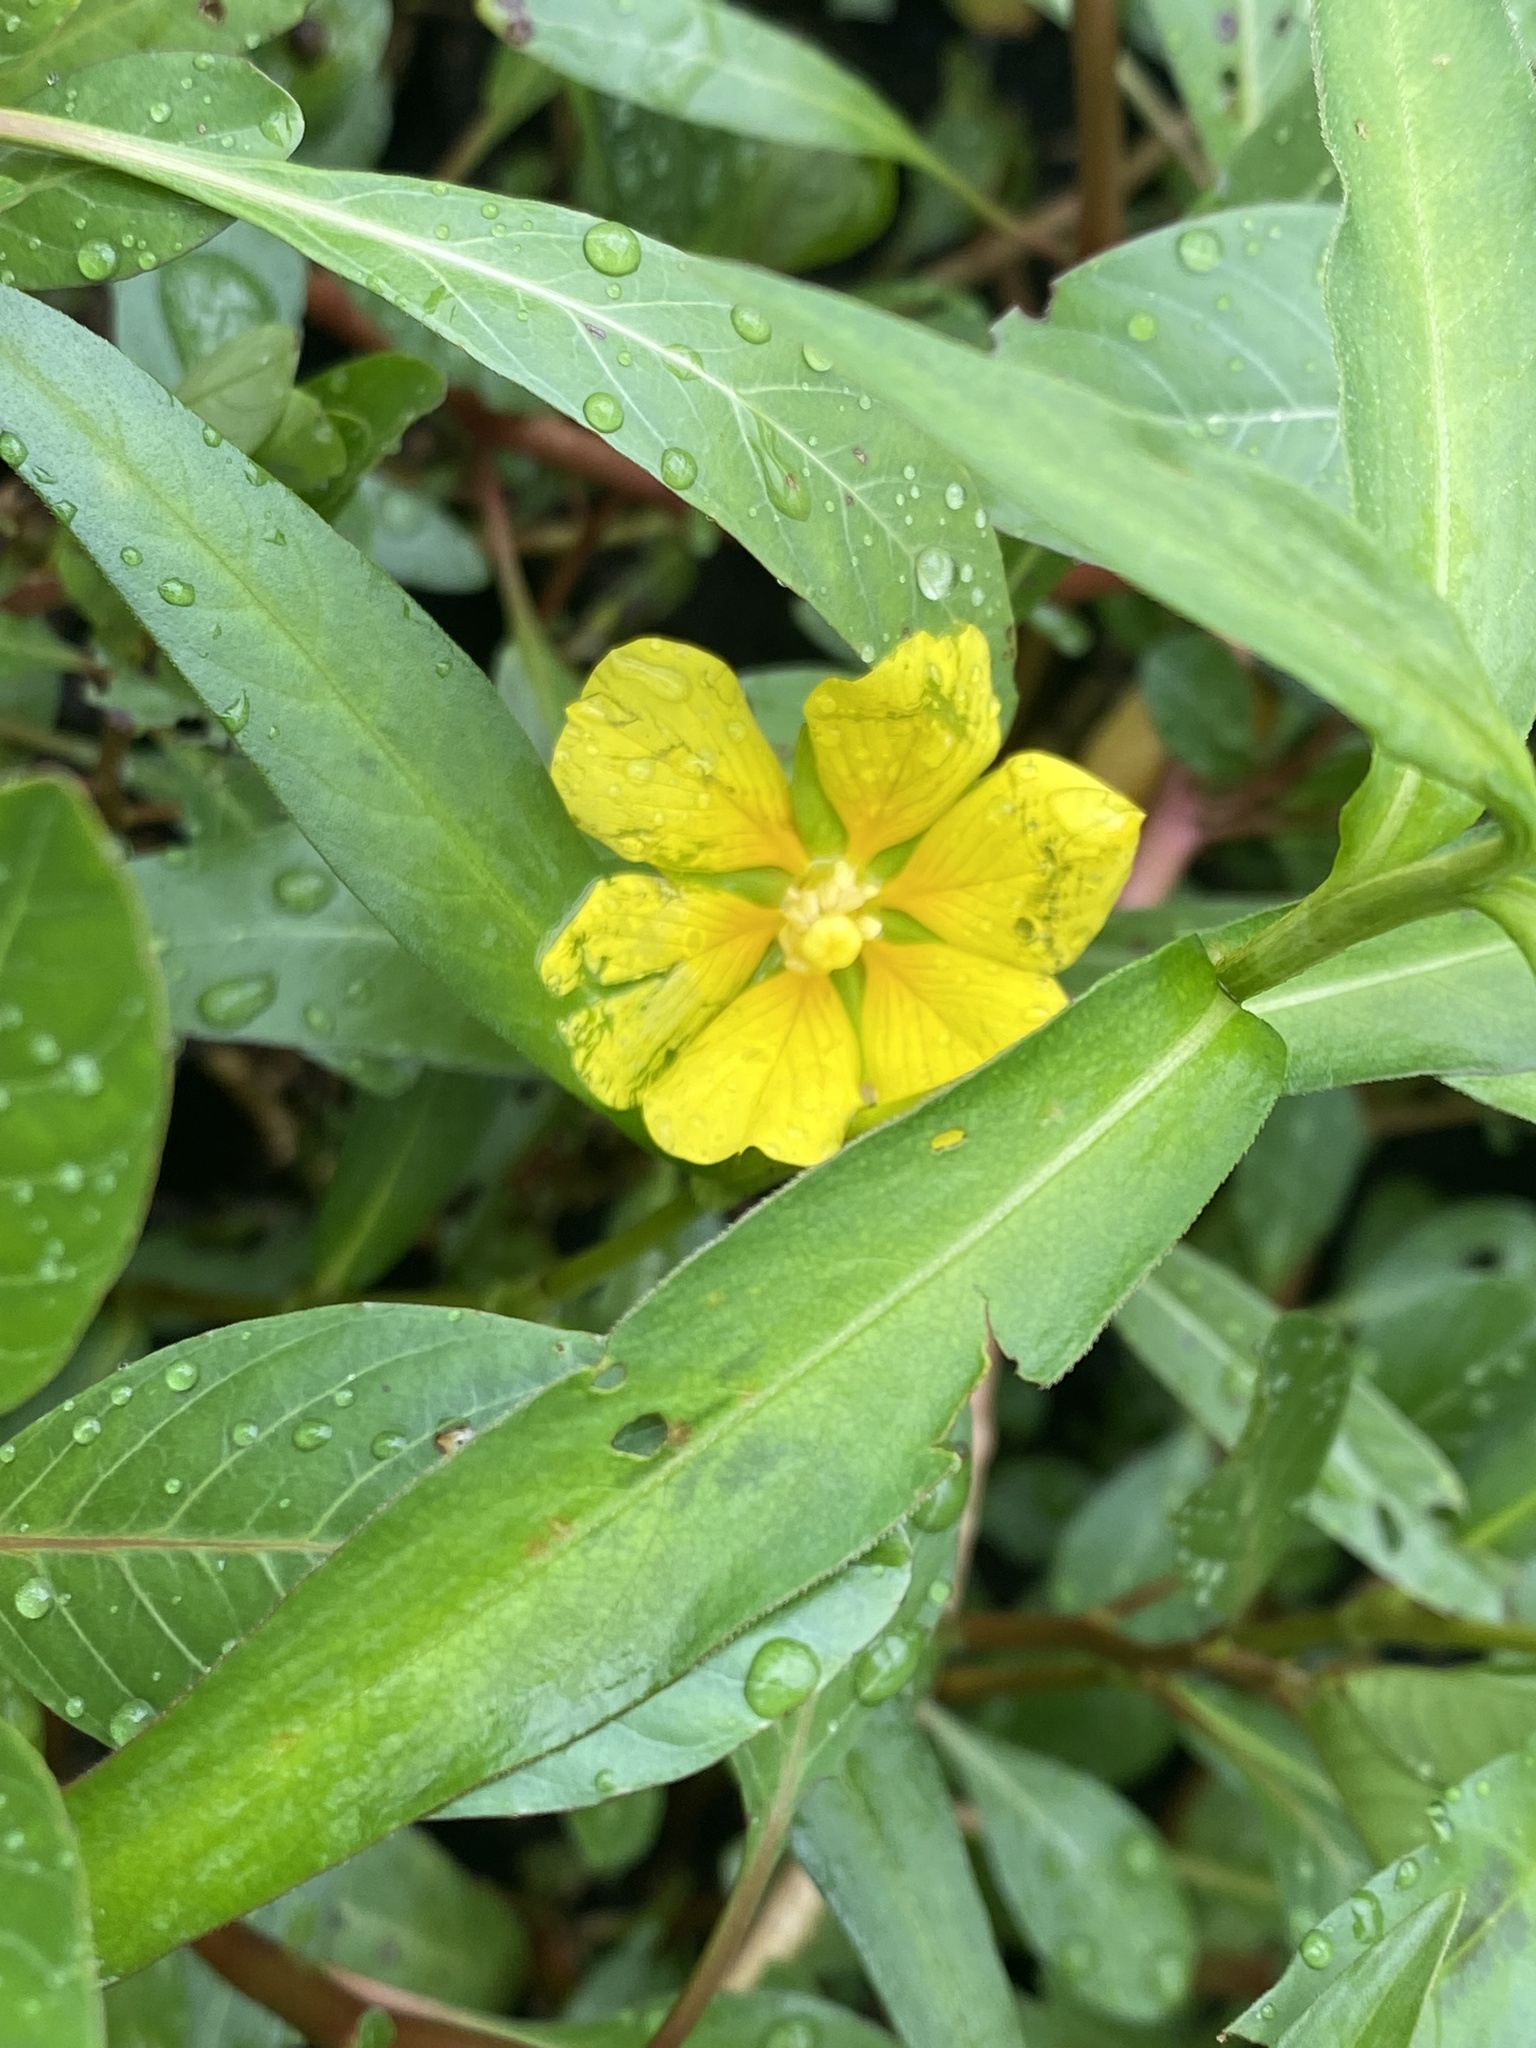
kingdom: Plantae
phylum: Tracheophyta
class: Magnoliopsida
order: Myrtales
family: Onagraceae
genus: Ludwigia
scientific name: Ludwigia peploides
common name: Floating primrose-willow
